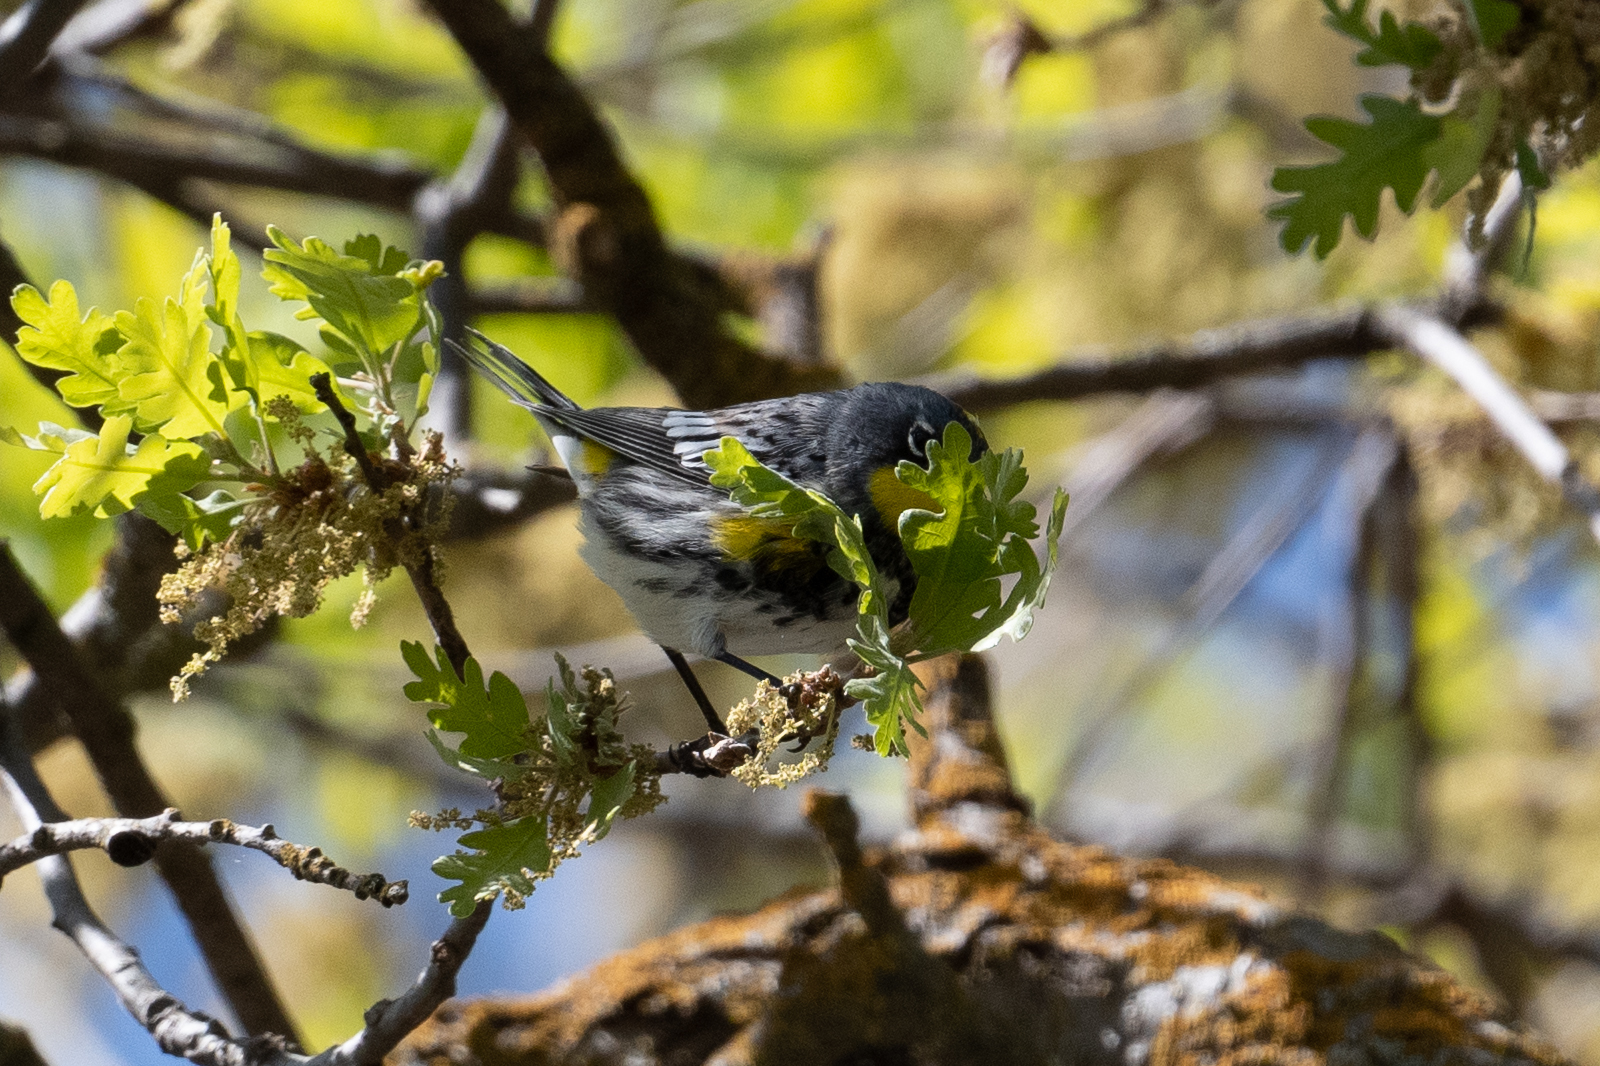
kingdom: Animalia
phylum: Chordata
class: Aves
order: Passeriformes
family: Parulidae
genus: Setophaga
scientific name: Setophaga coronata
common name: Myrtle warbler
